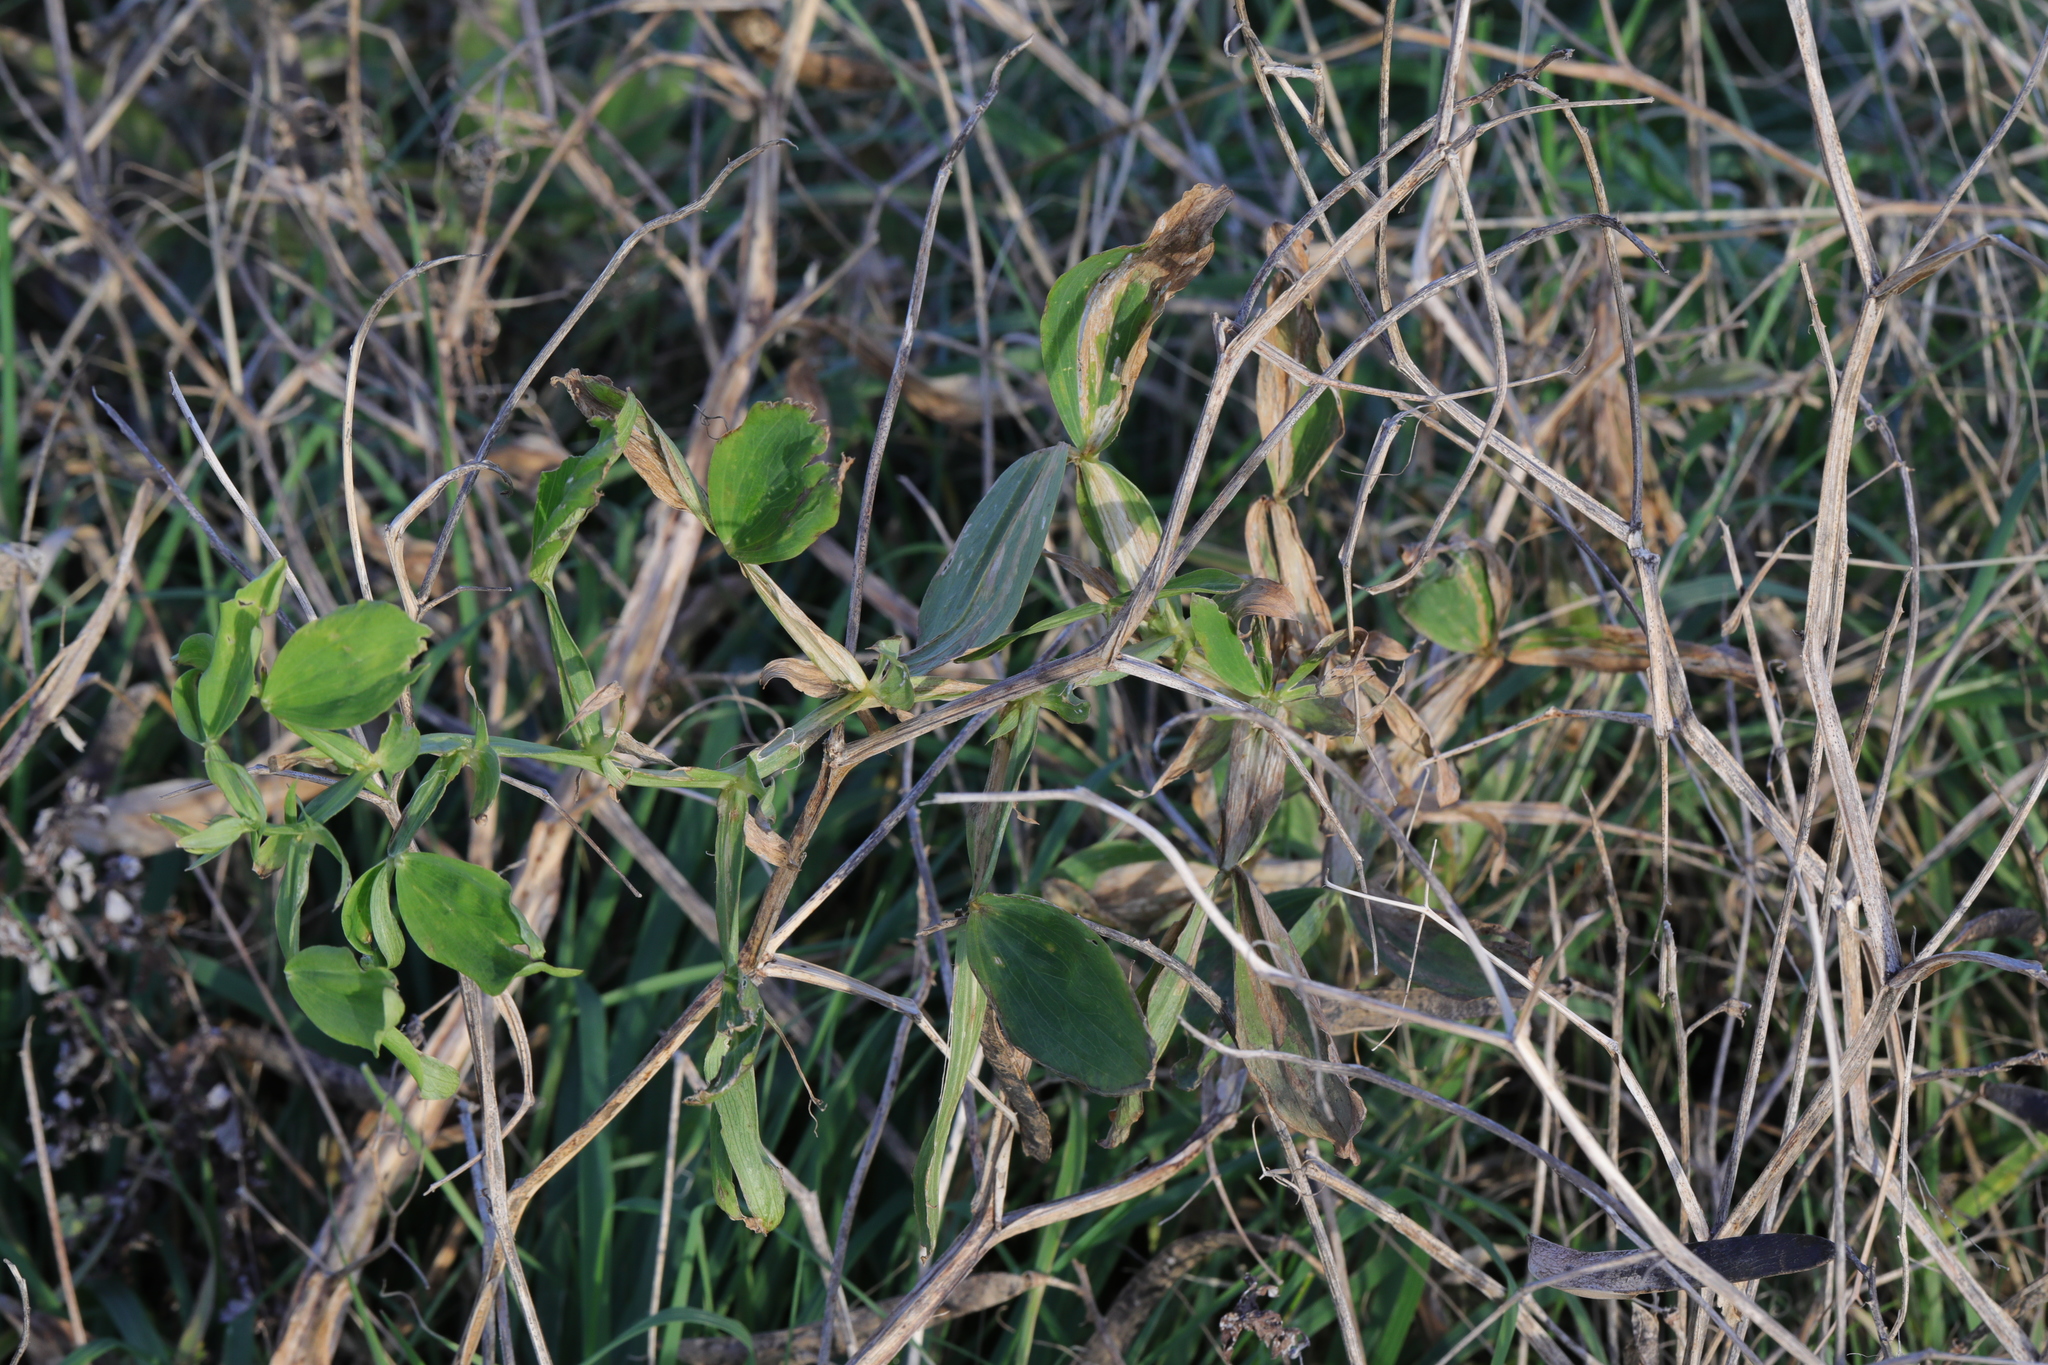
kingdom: Plantae
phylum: Tracheophyta
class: Magnoliopsida
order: Fabales
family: Fabaceae
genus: Lathyrus
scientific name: Lathyrus latifolius
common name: Perennial pea
